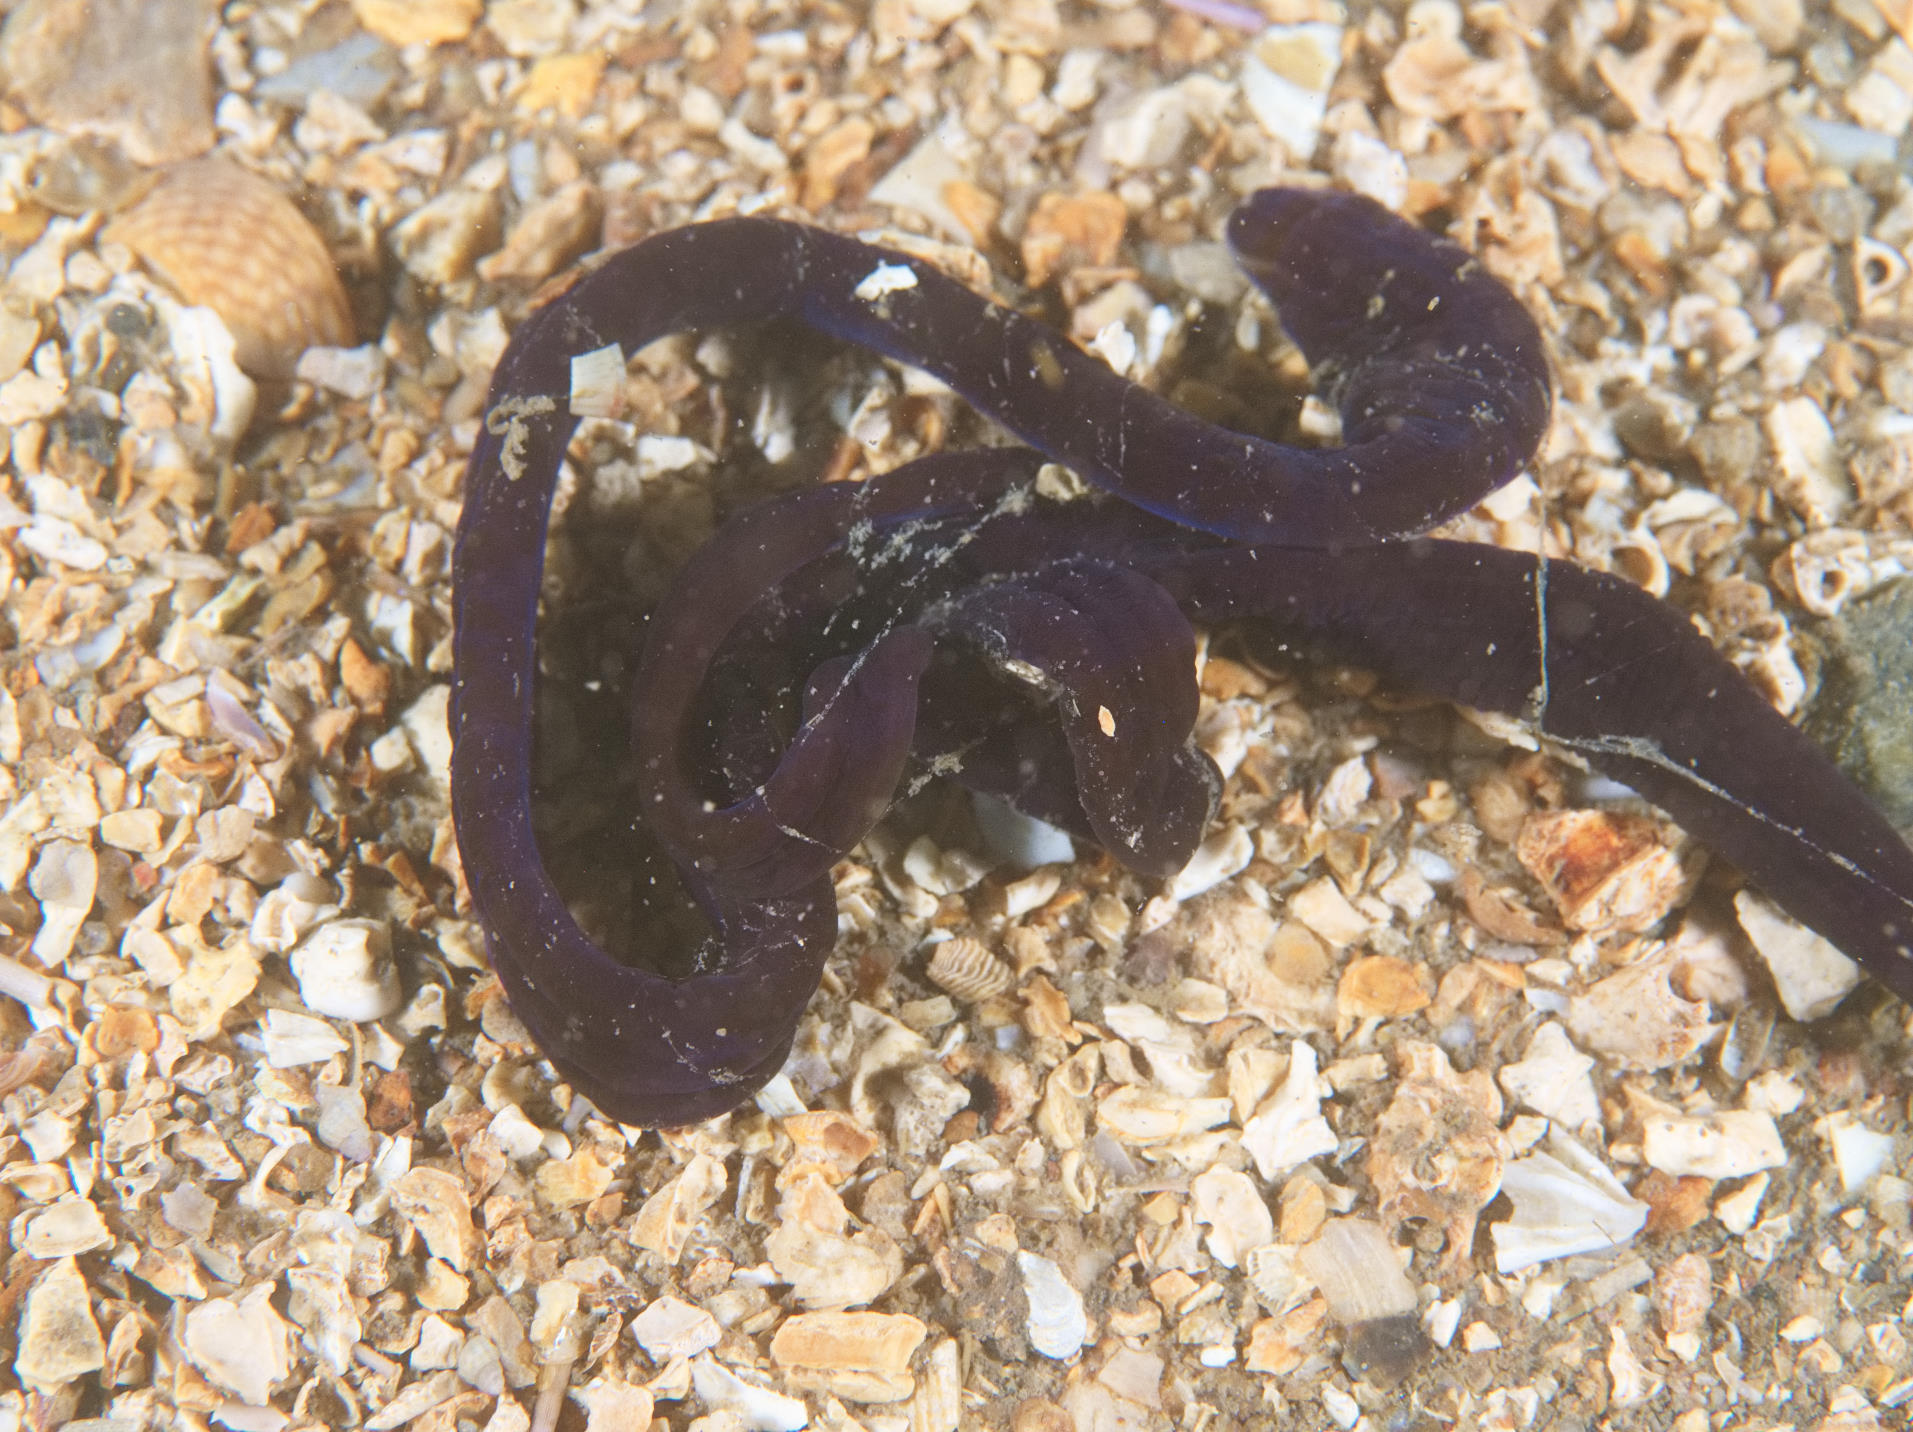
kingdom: Animalia
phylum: Nemertea
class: Pilidiophora
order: Heteronemertea
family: Lineidae
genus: Lineus
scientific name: Lineus longissimus
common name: Bootlace worm
